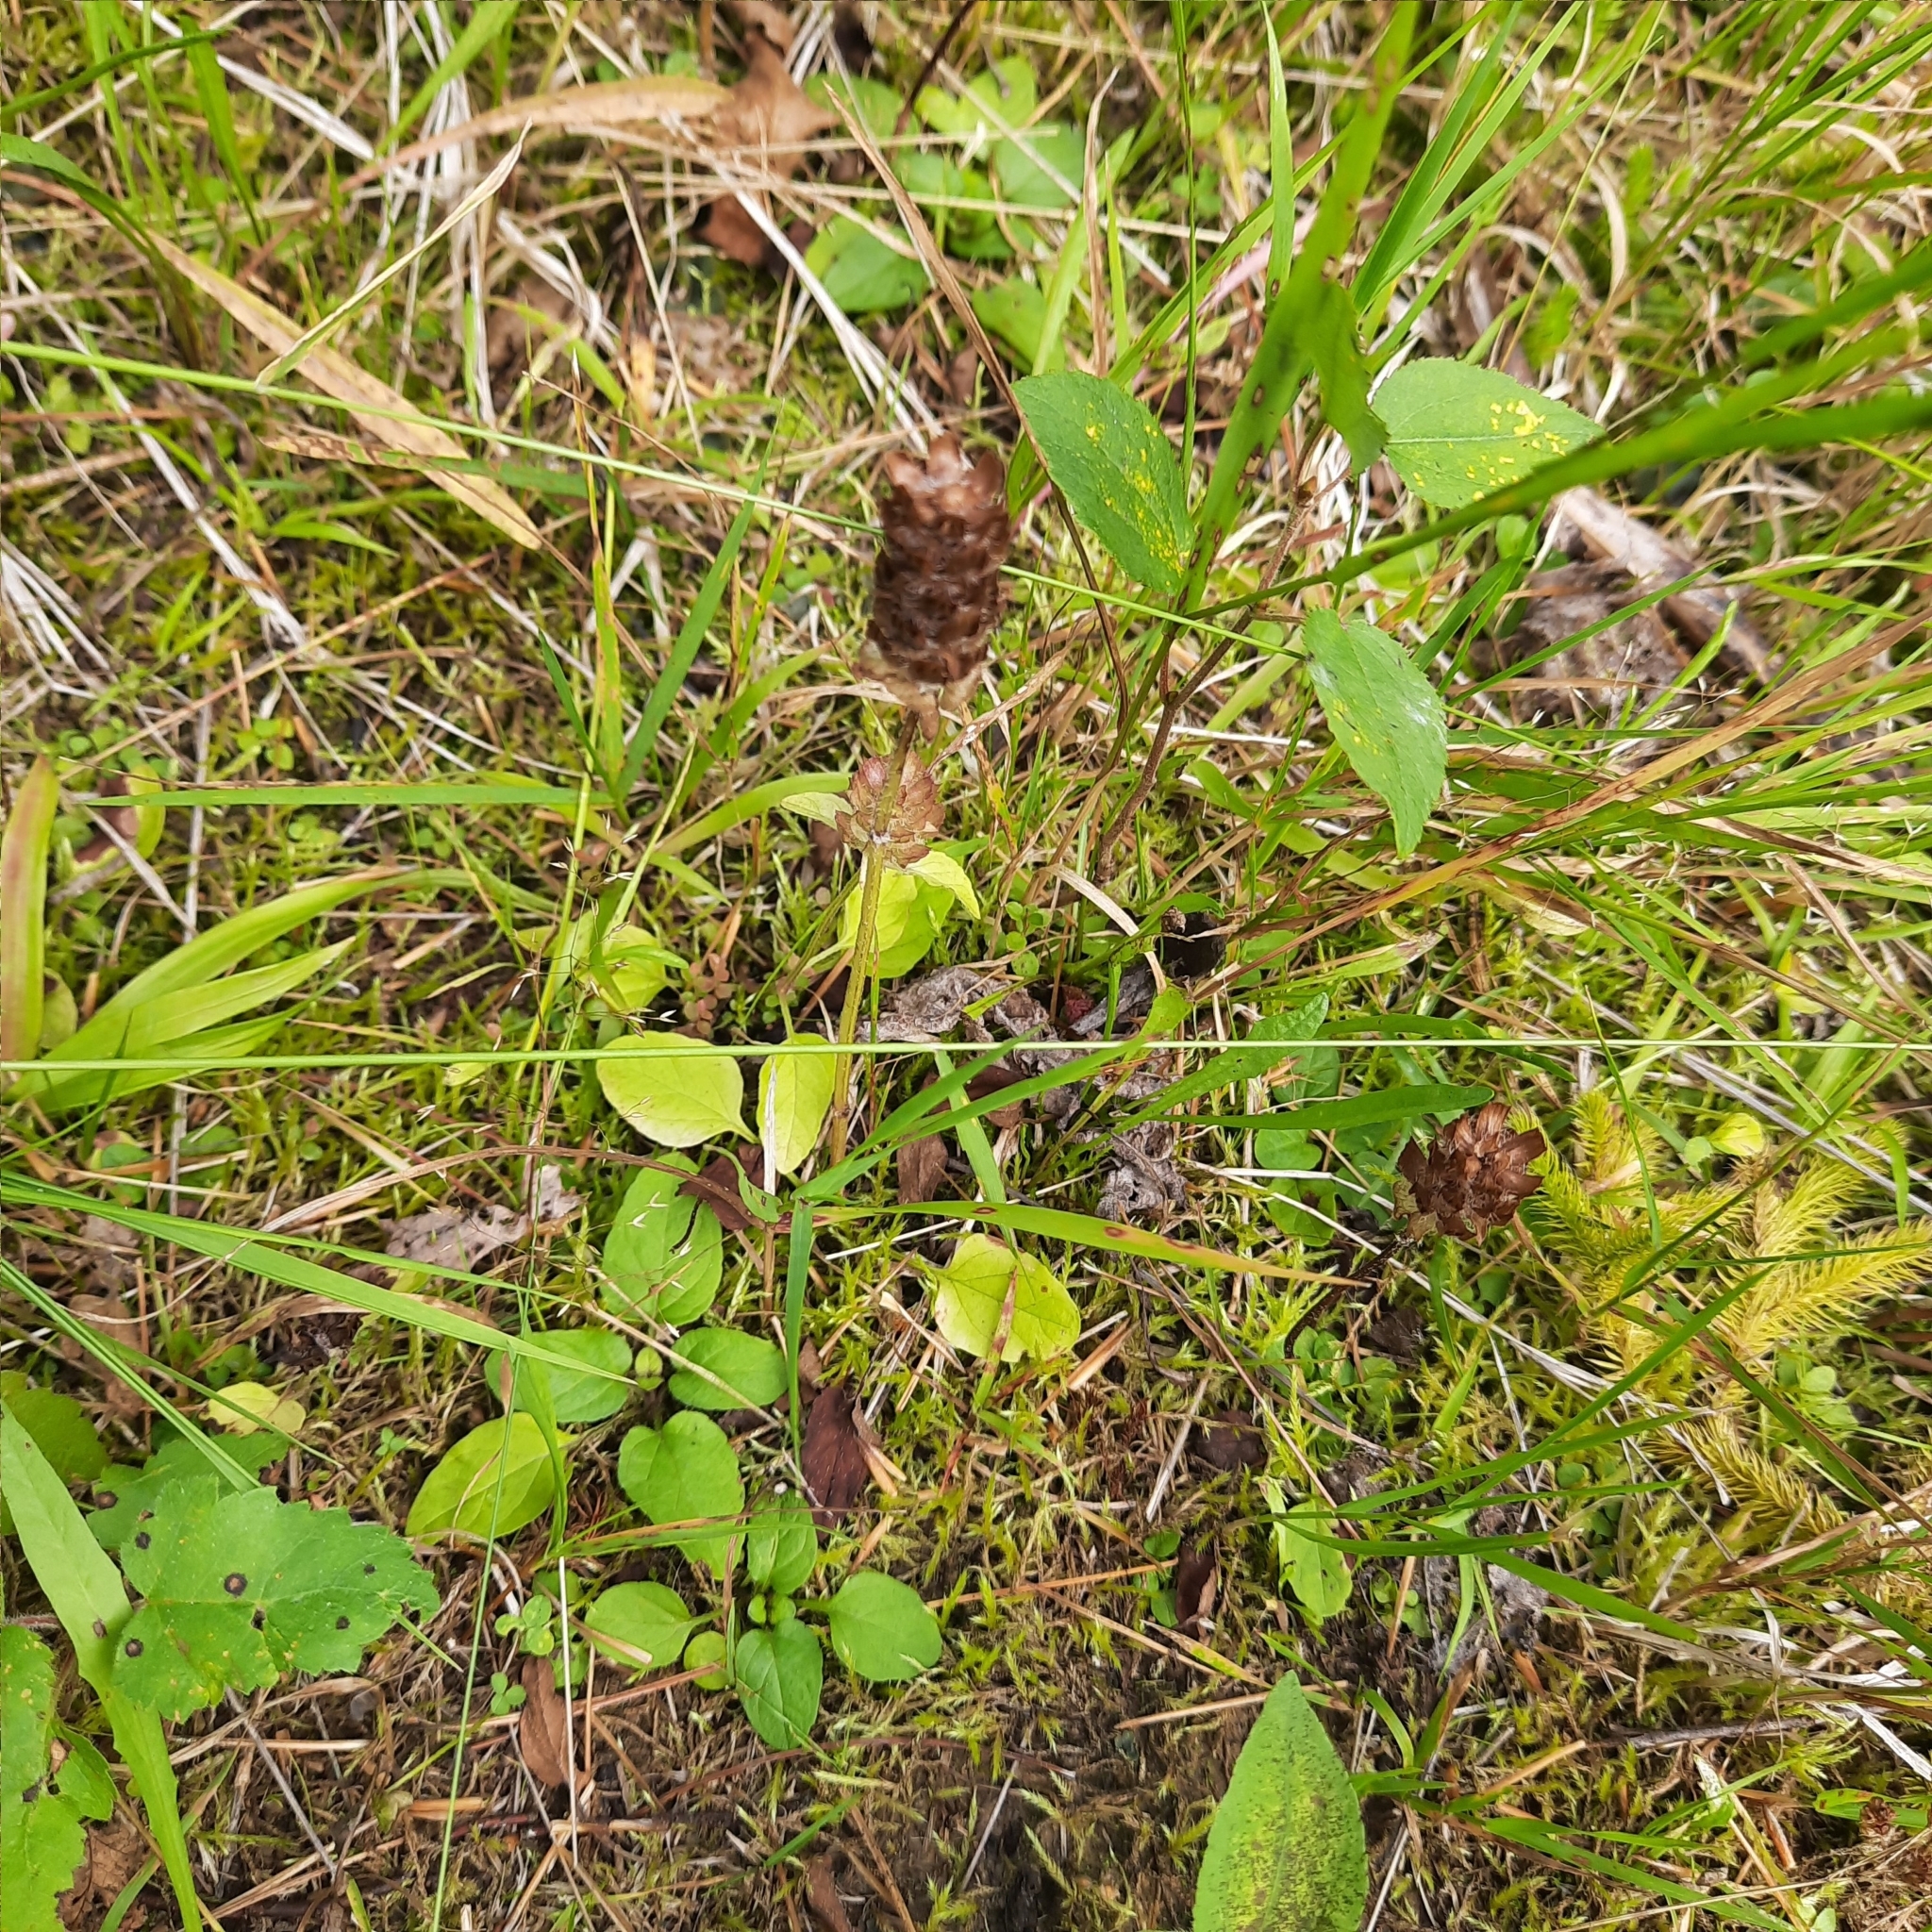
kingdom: Plantae
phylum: Tracheophyta
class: Magnoliopsida
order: Lamiales
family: Lamiaceae
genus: Prunella
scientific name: Prunella vulgaris
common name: Heal-all
